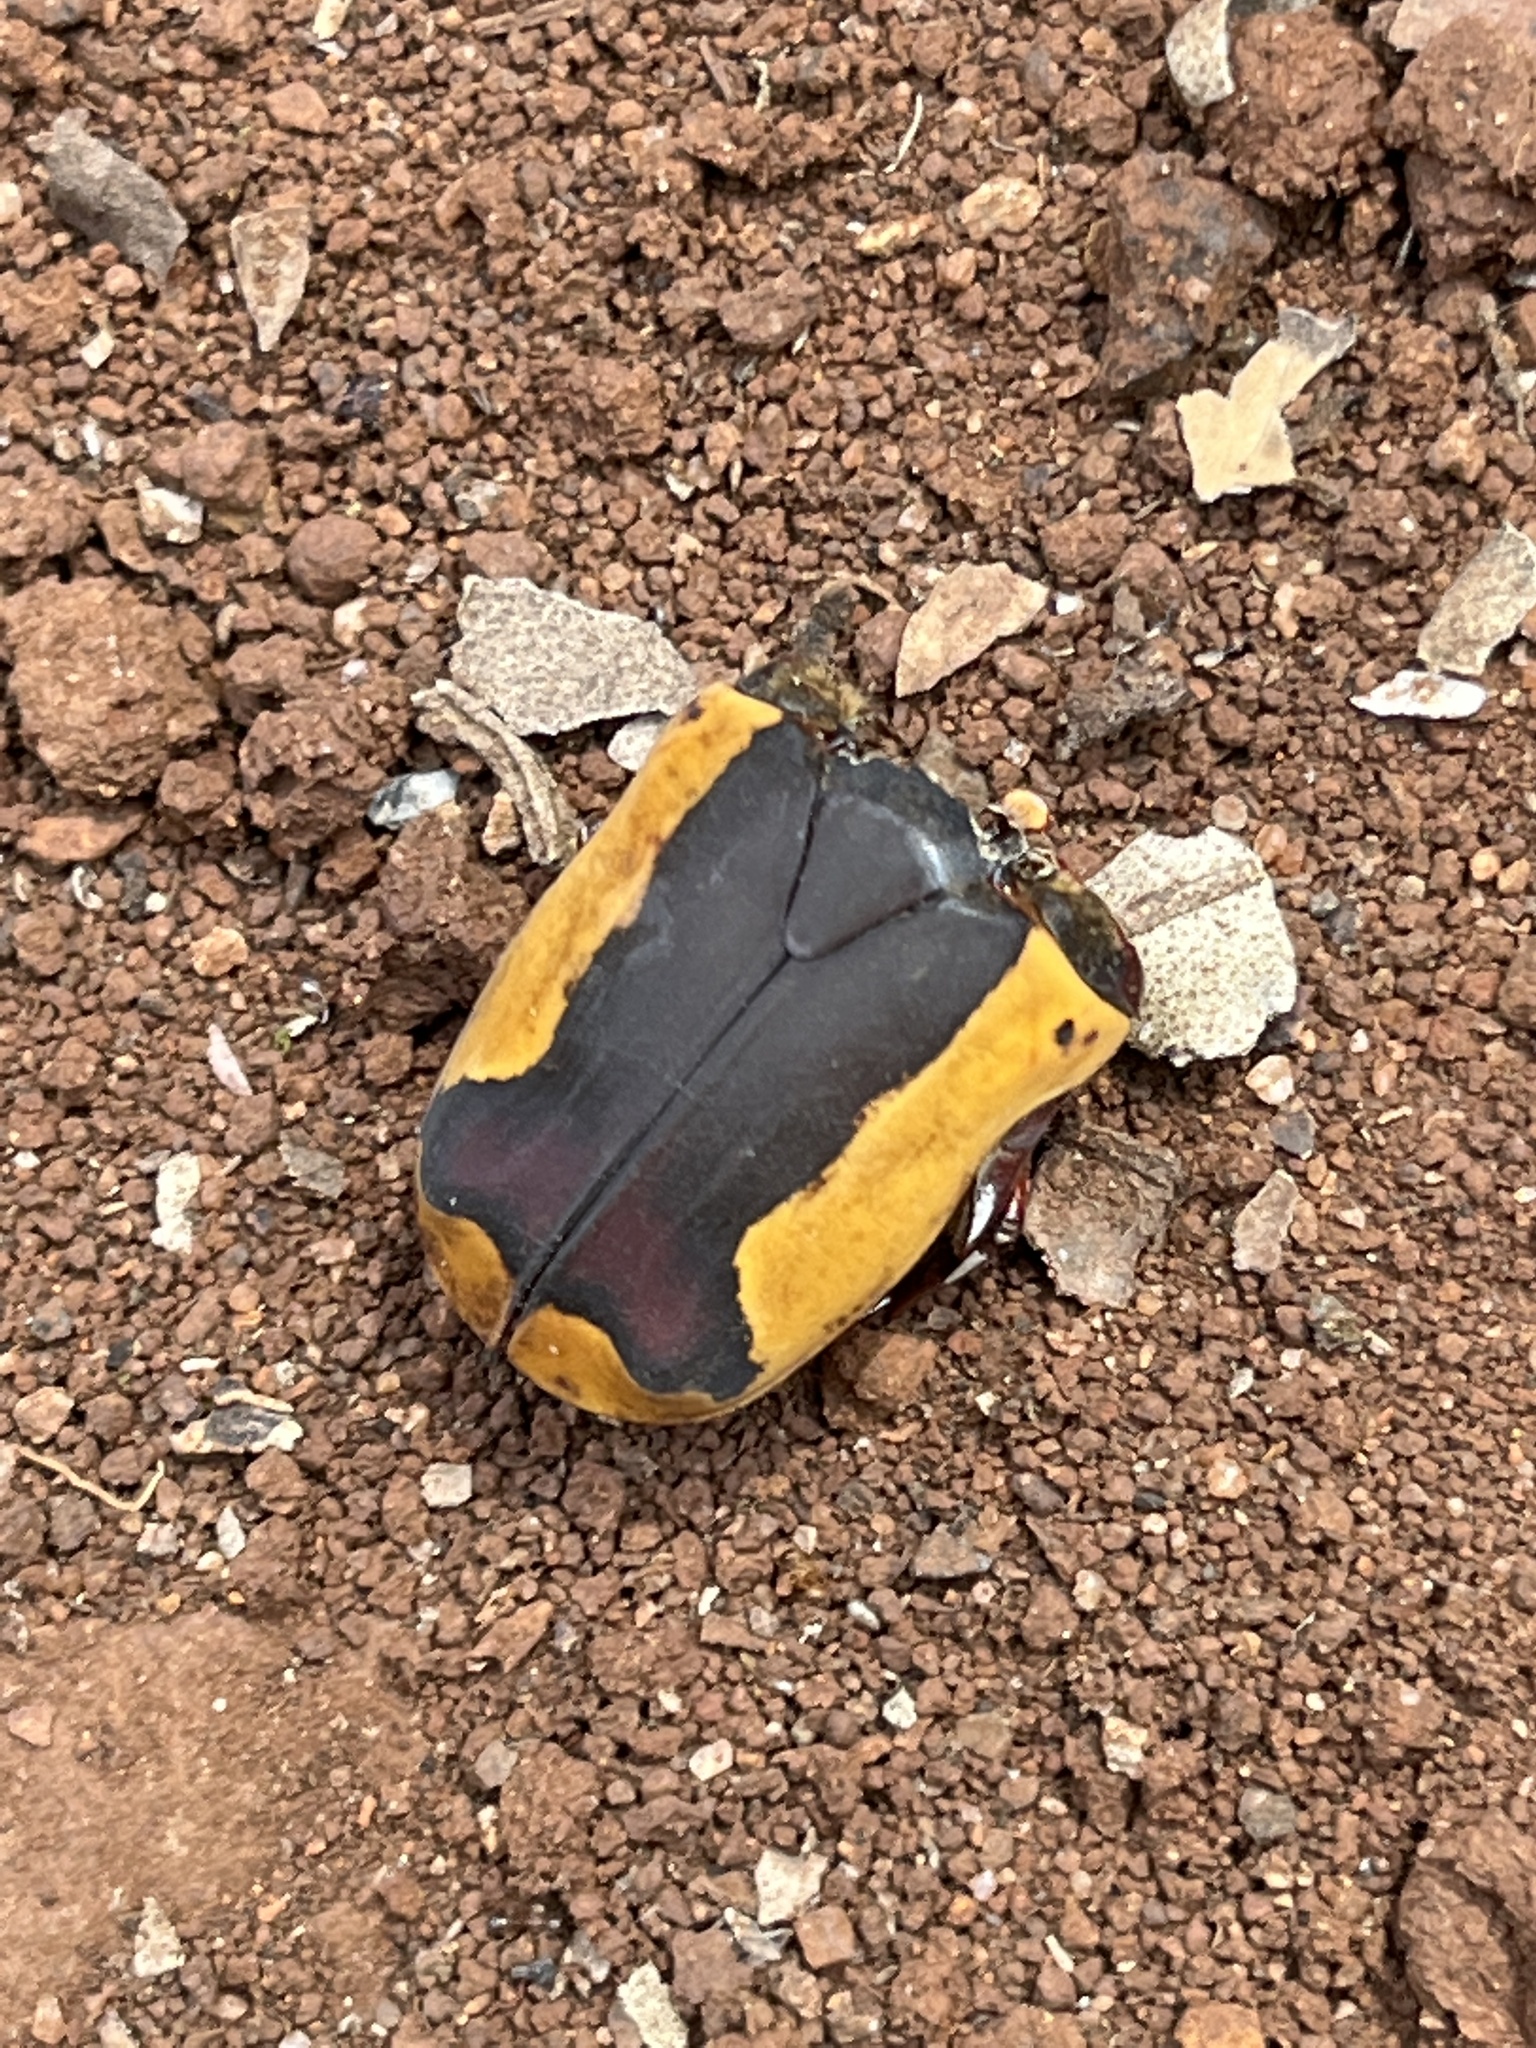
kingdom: Animalia
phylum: Arthropoda
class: Insecta
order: Coleoptera
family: Scarabaeidae
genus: Pachnoda
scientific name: Pachnoda ephippiata
